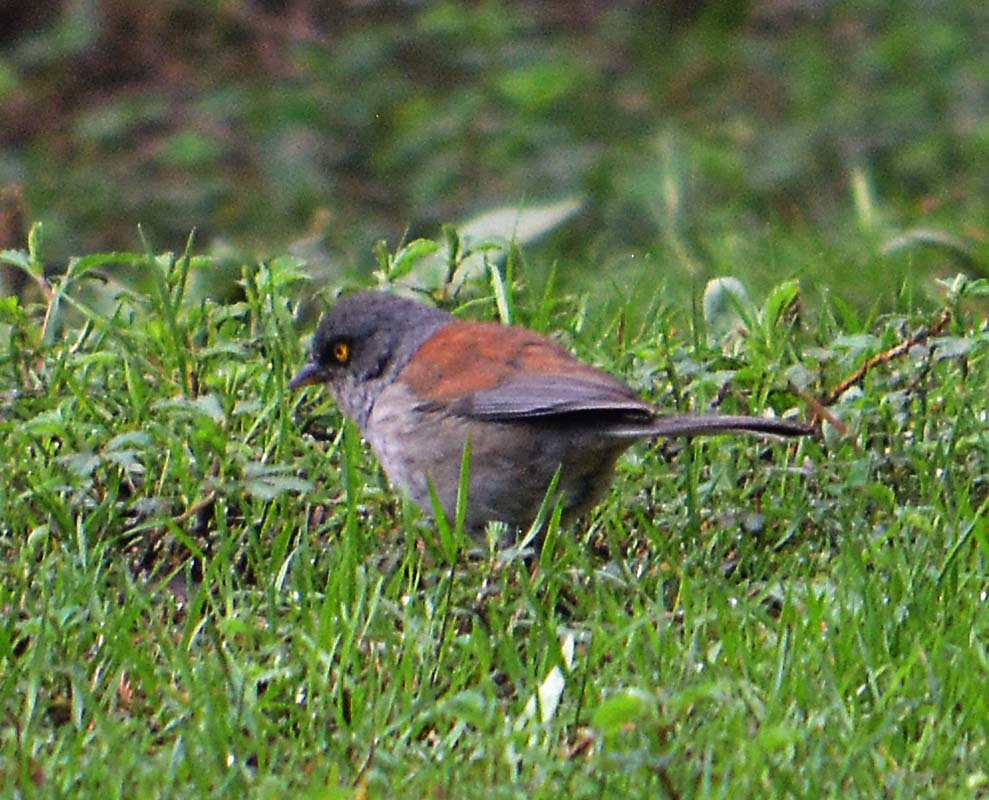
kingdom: Animalia
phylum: Chordata
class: Aves
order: Passeriformes
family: Passerellidae
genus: Junco
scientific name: Junco phaeonotus
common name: Yellow-eyed junco
